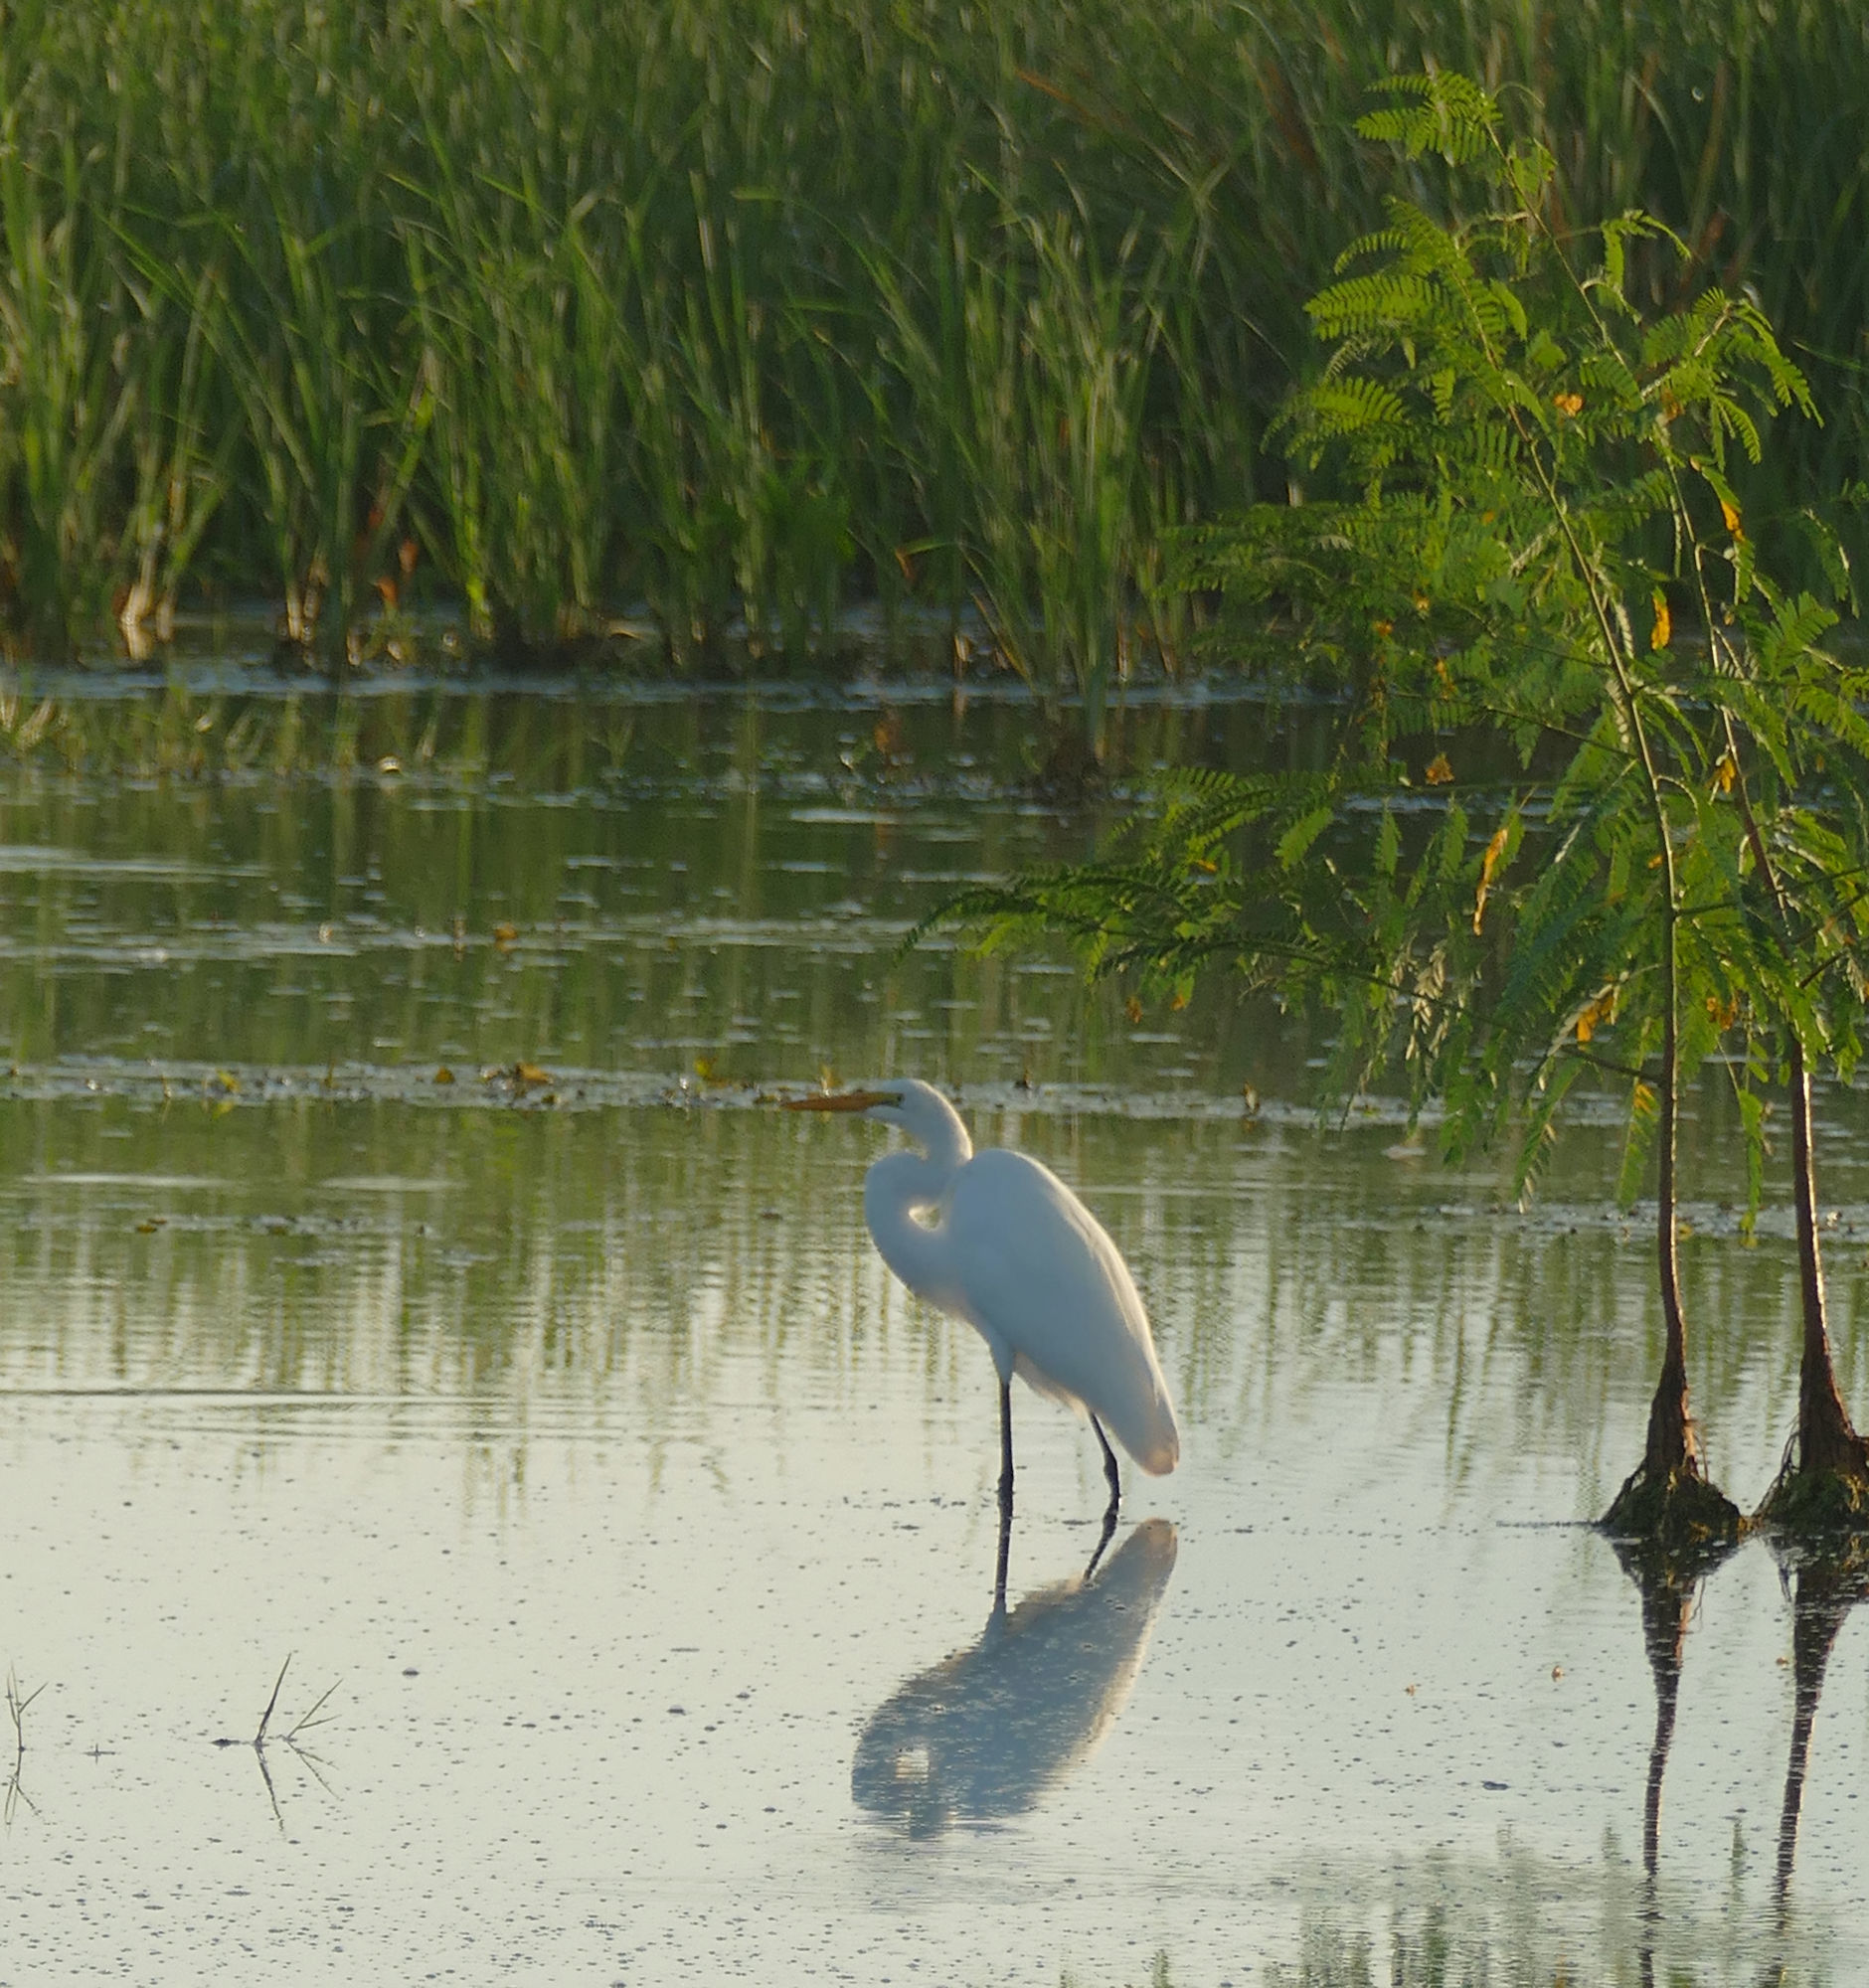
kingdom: Animalia
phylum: Chordata
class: Aves
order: Pelecaniformes
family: Ardeidae
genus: Ardea
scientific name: Ardea alba
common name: Great egret
